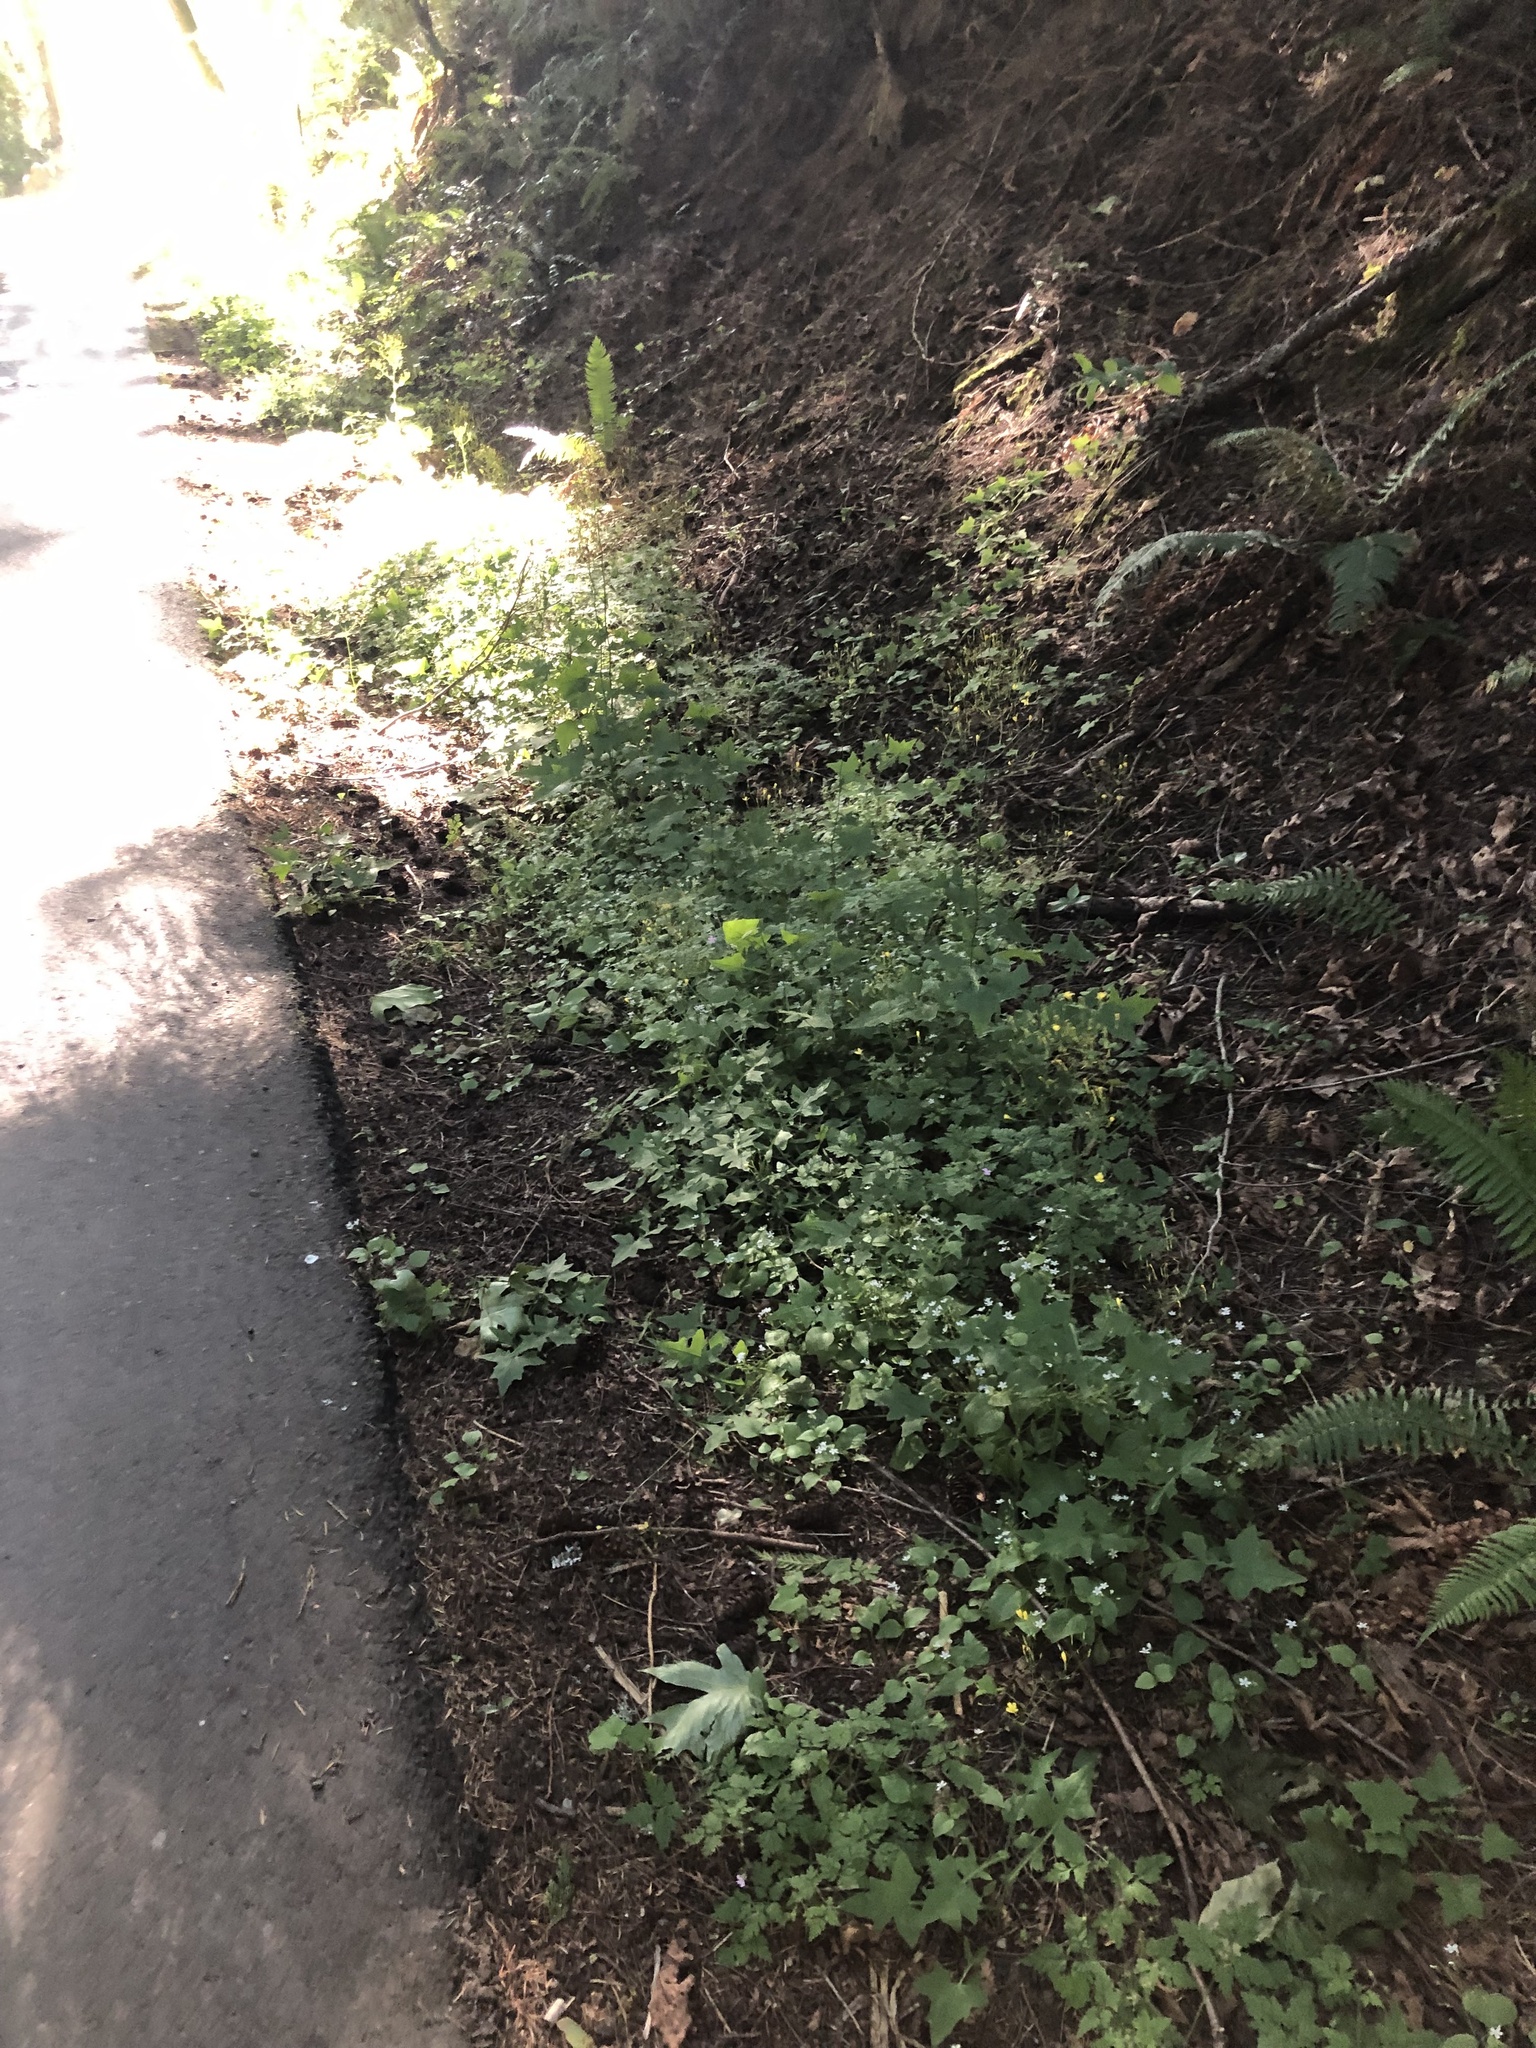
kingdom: Plantae
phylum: Tracheophyta
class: Magnoliopsida
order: Caryophyllales
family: Montiaceae
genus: Claytonia
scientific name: Claytonia sibirica
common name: Pink purslane
